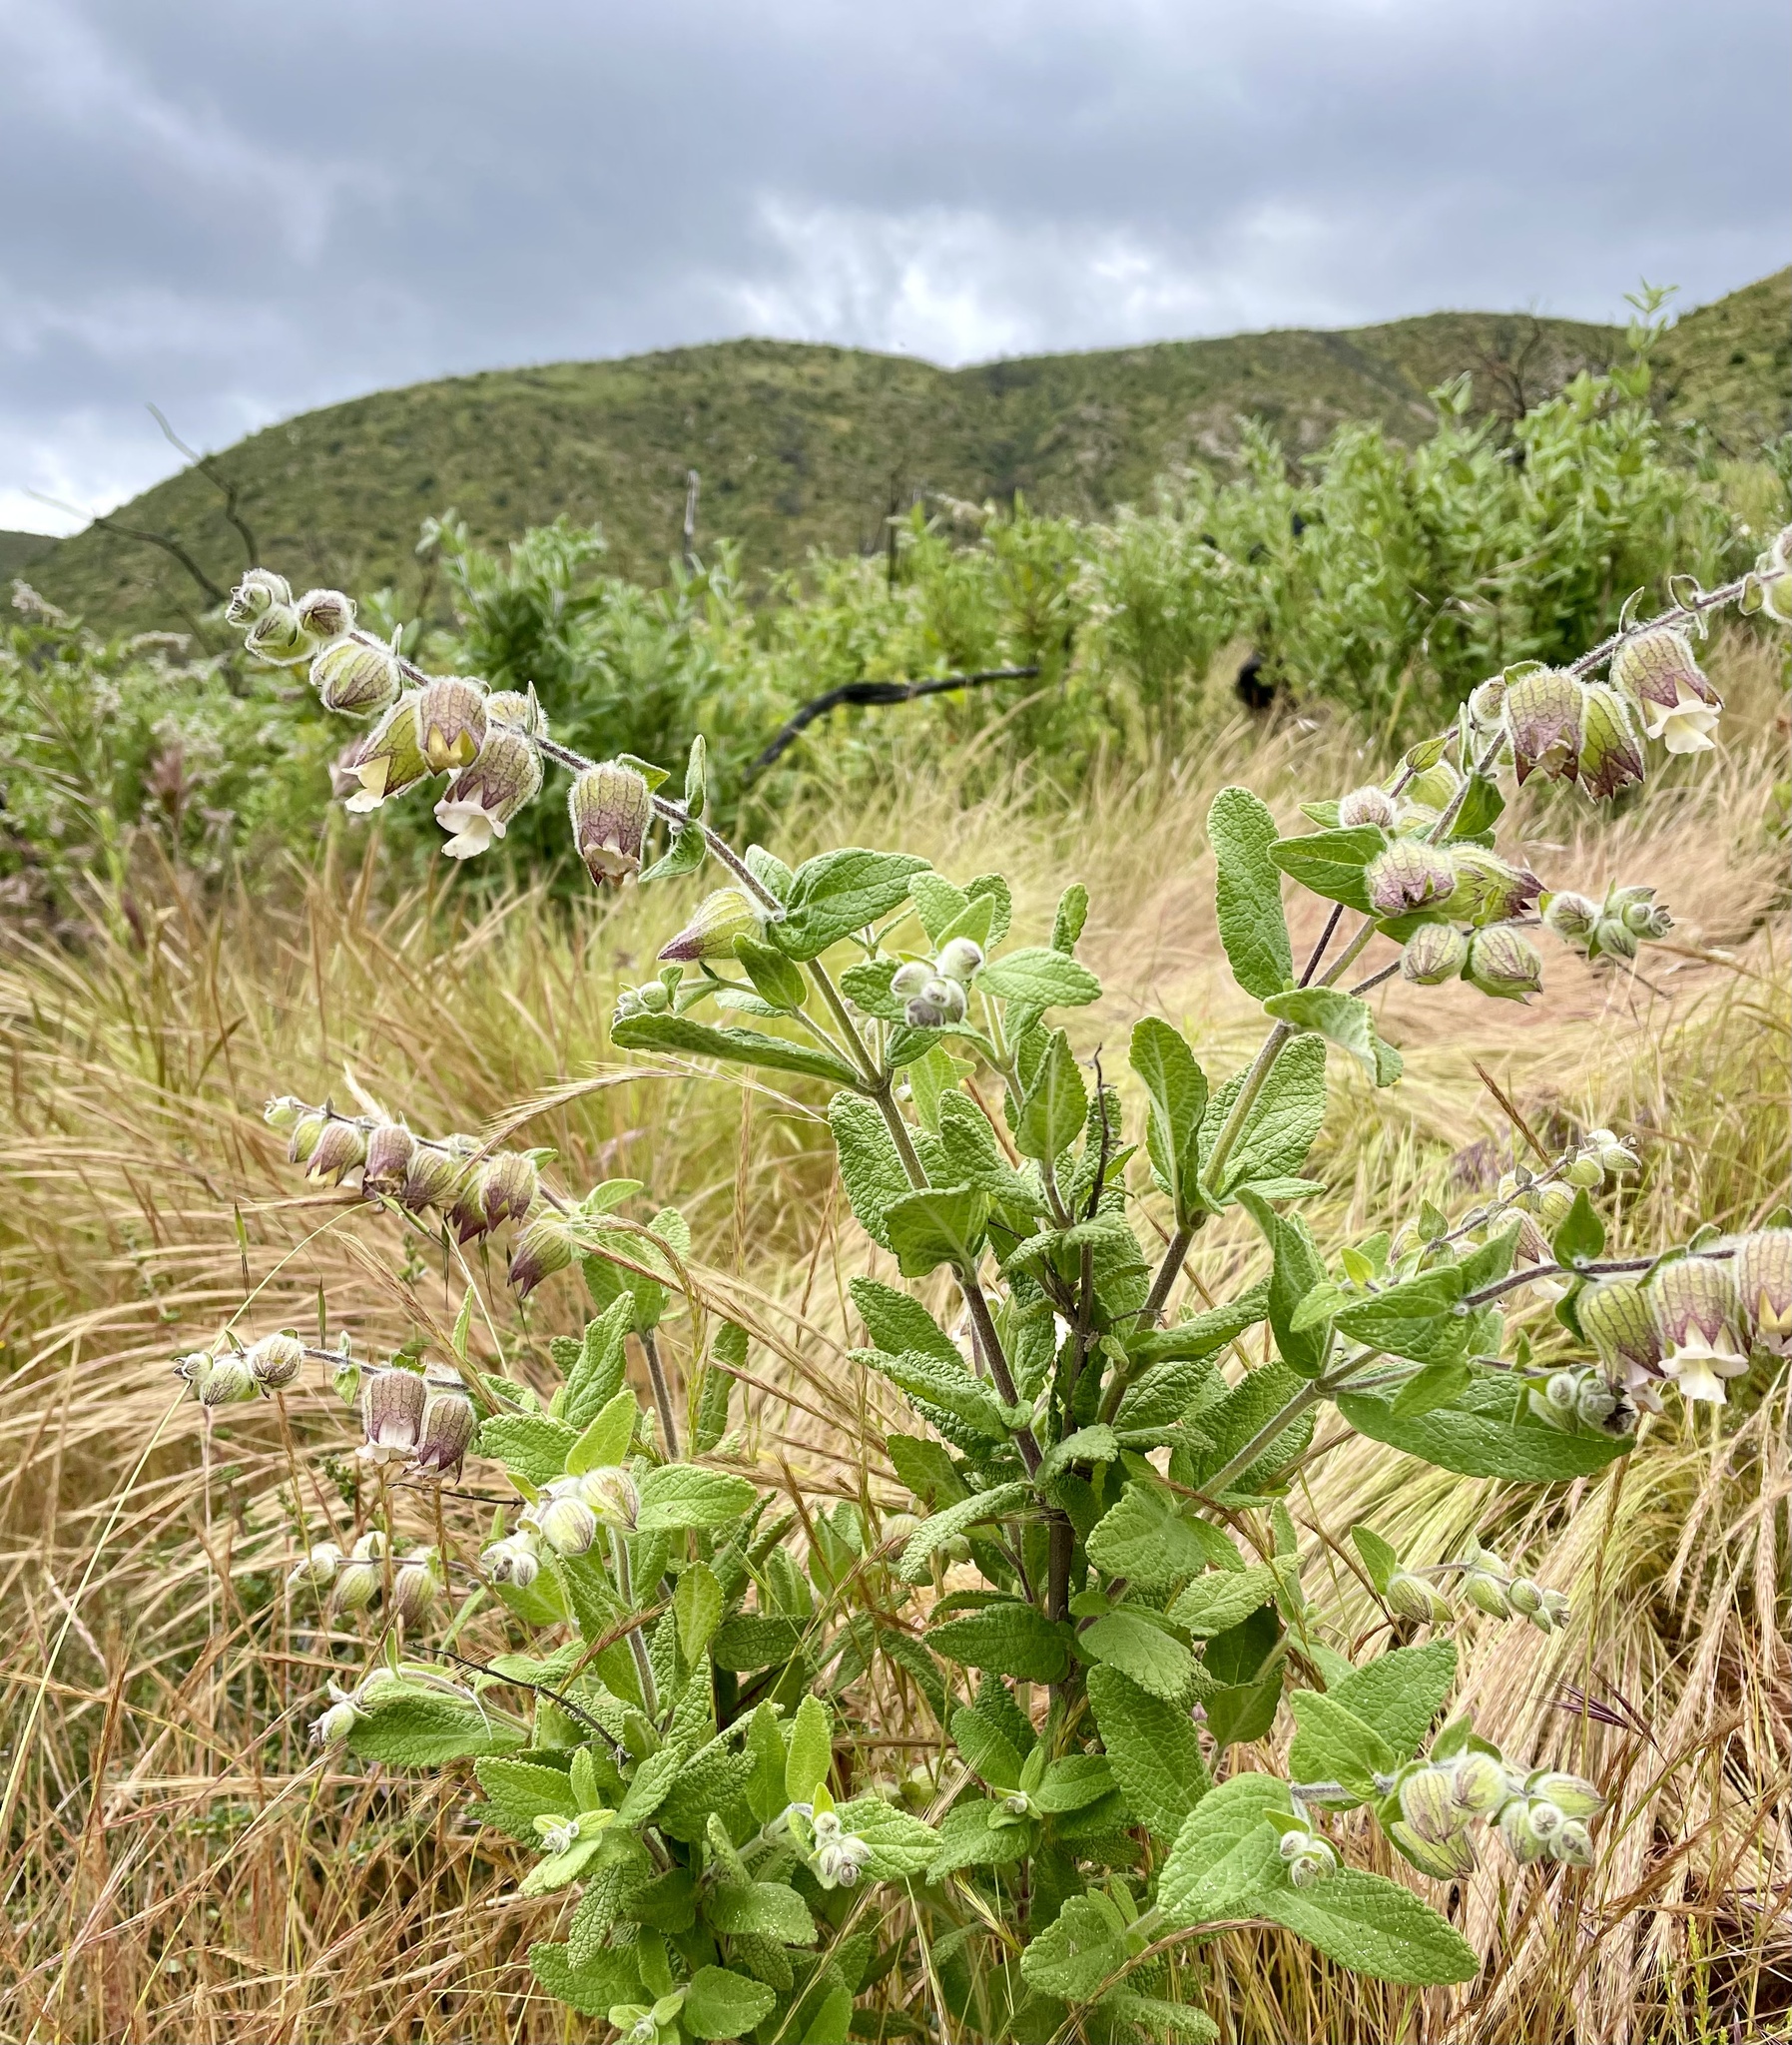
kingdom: Plantae
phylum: Tracheophyta
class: Magnoliopsida
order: Lamiales
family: Lamiaceae
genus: Lepechinia
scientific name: Lepechinia calycina
